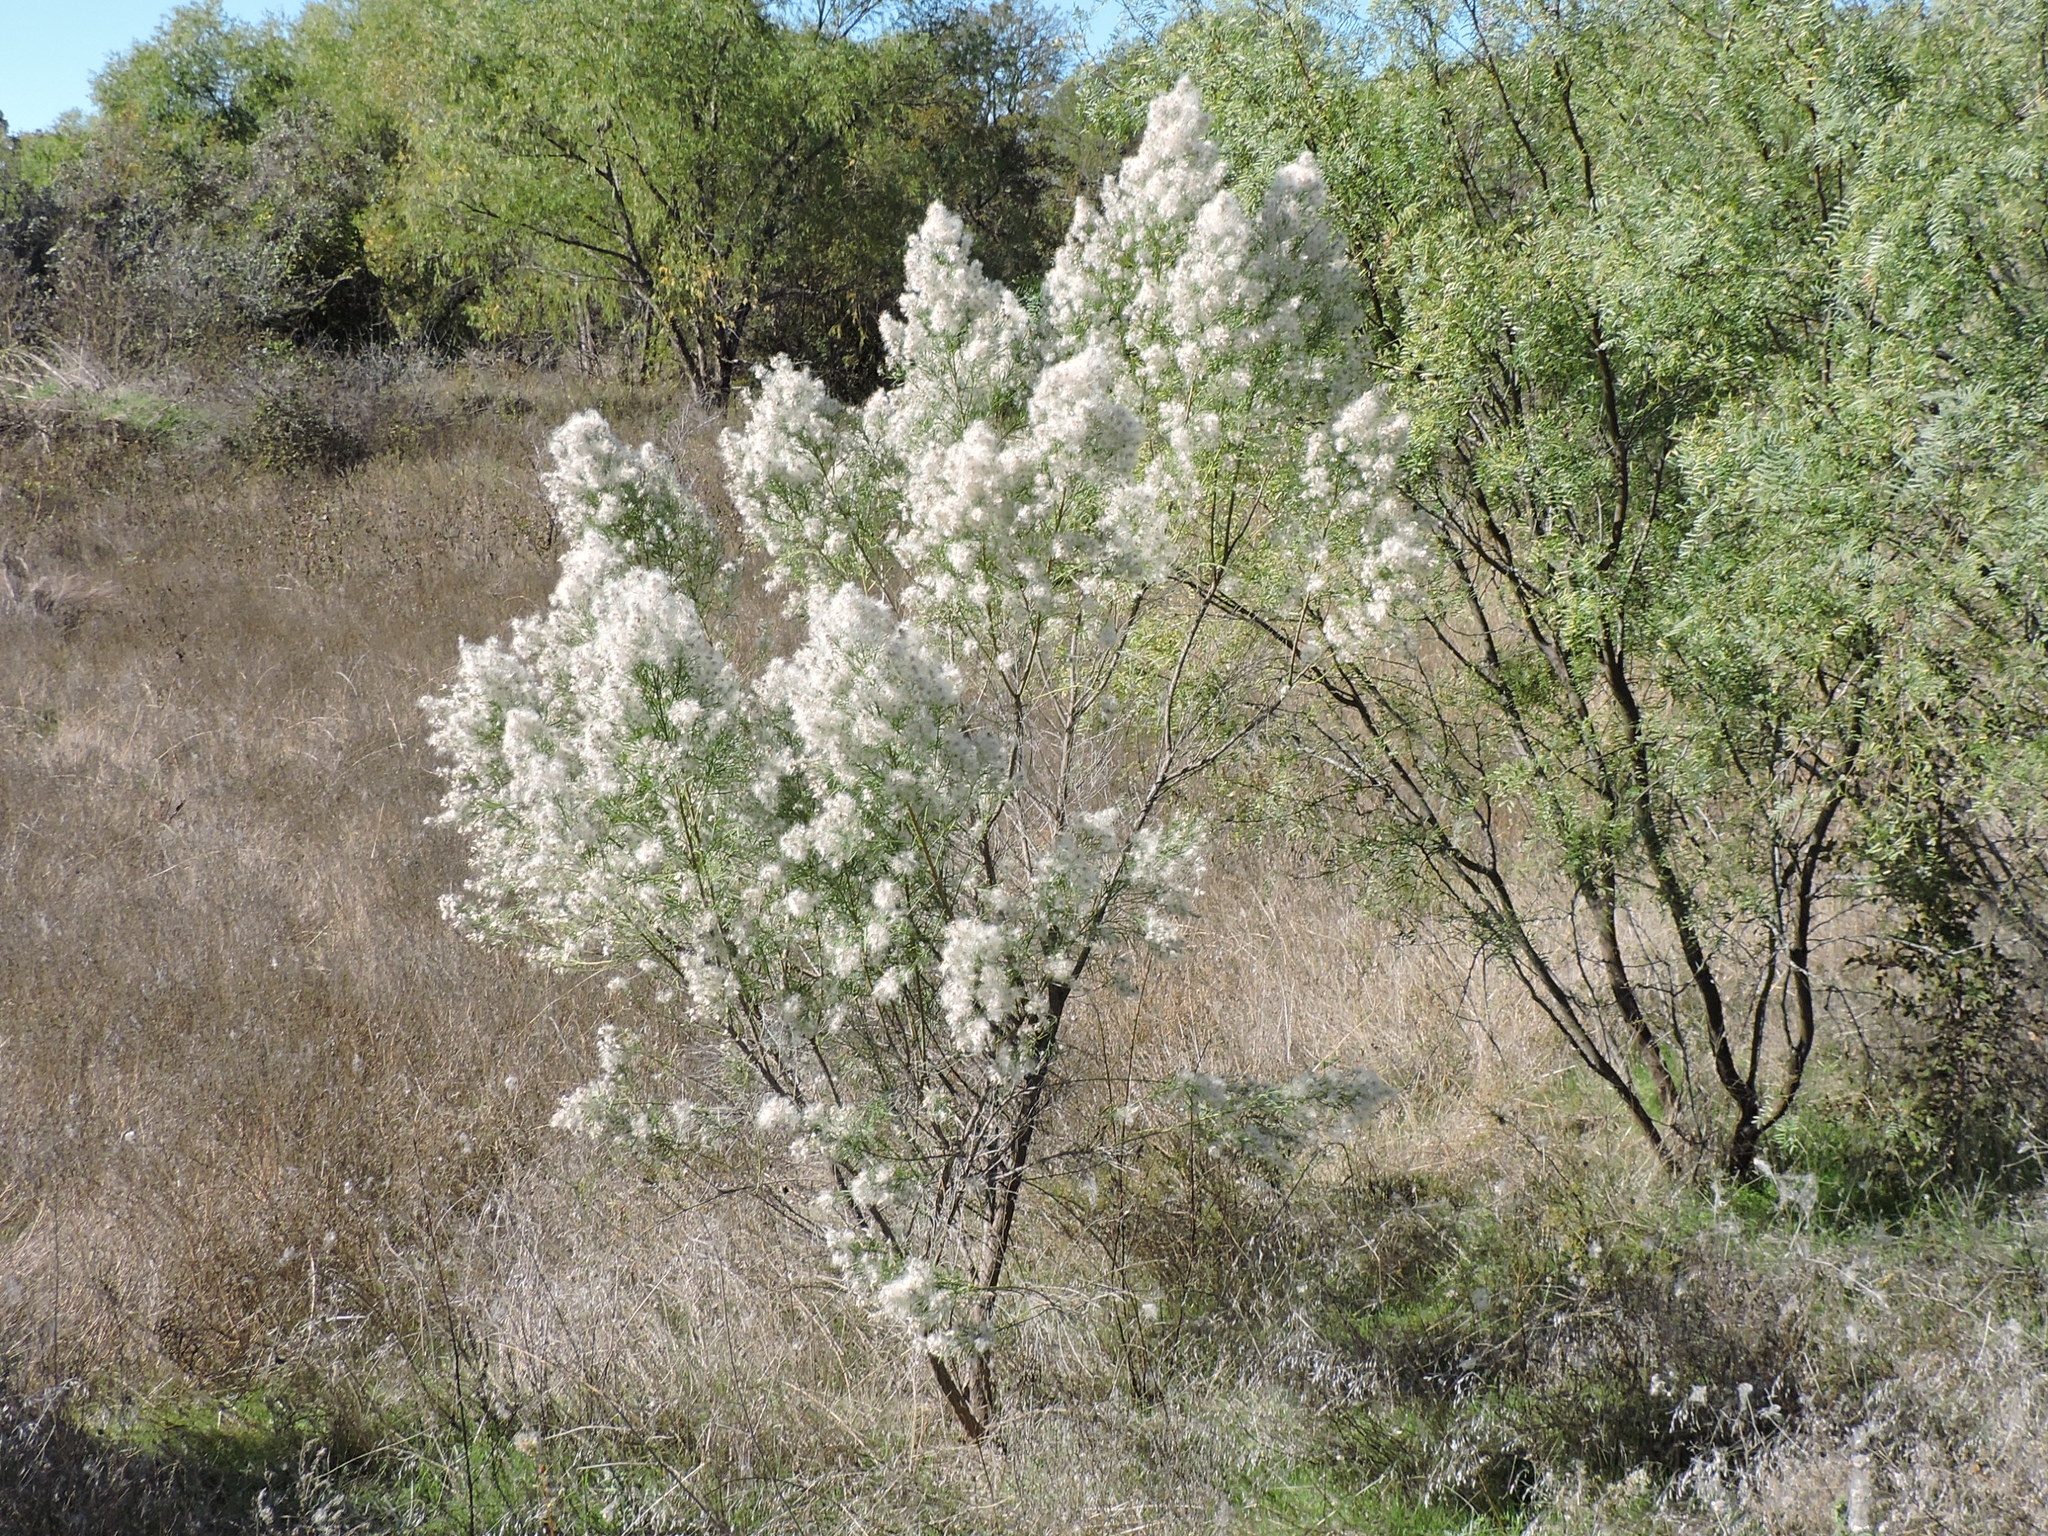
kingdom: Plantae
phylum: Tracheophyta
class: Magnoliopsida
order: Asterales
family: Asteraceae
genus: Baccharis
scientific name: Baccharis neglecta
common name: Roosevelt-weed
